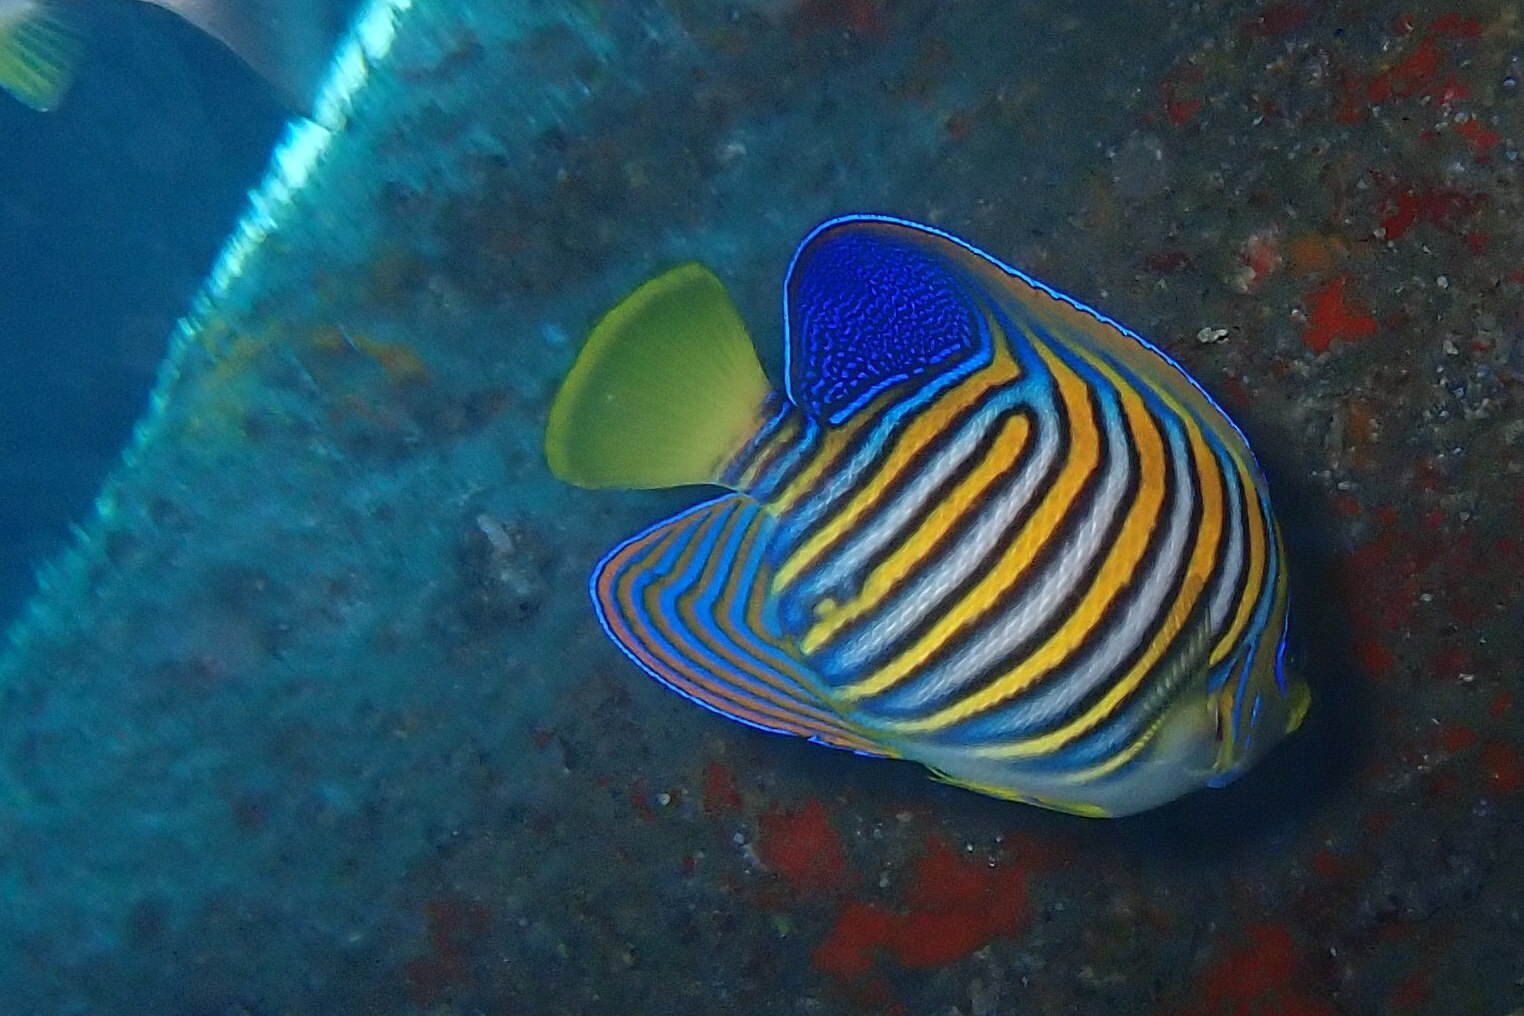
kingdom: Animalia
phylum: Chordata
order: Perciformes
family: Pomacanthidae
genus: Pygoplites
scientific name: Pygoplites diacanthus
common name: Regal angelfish
